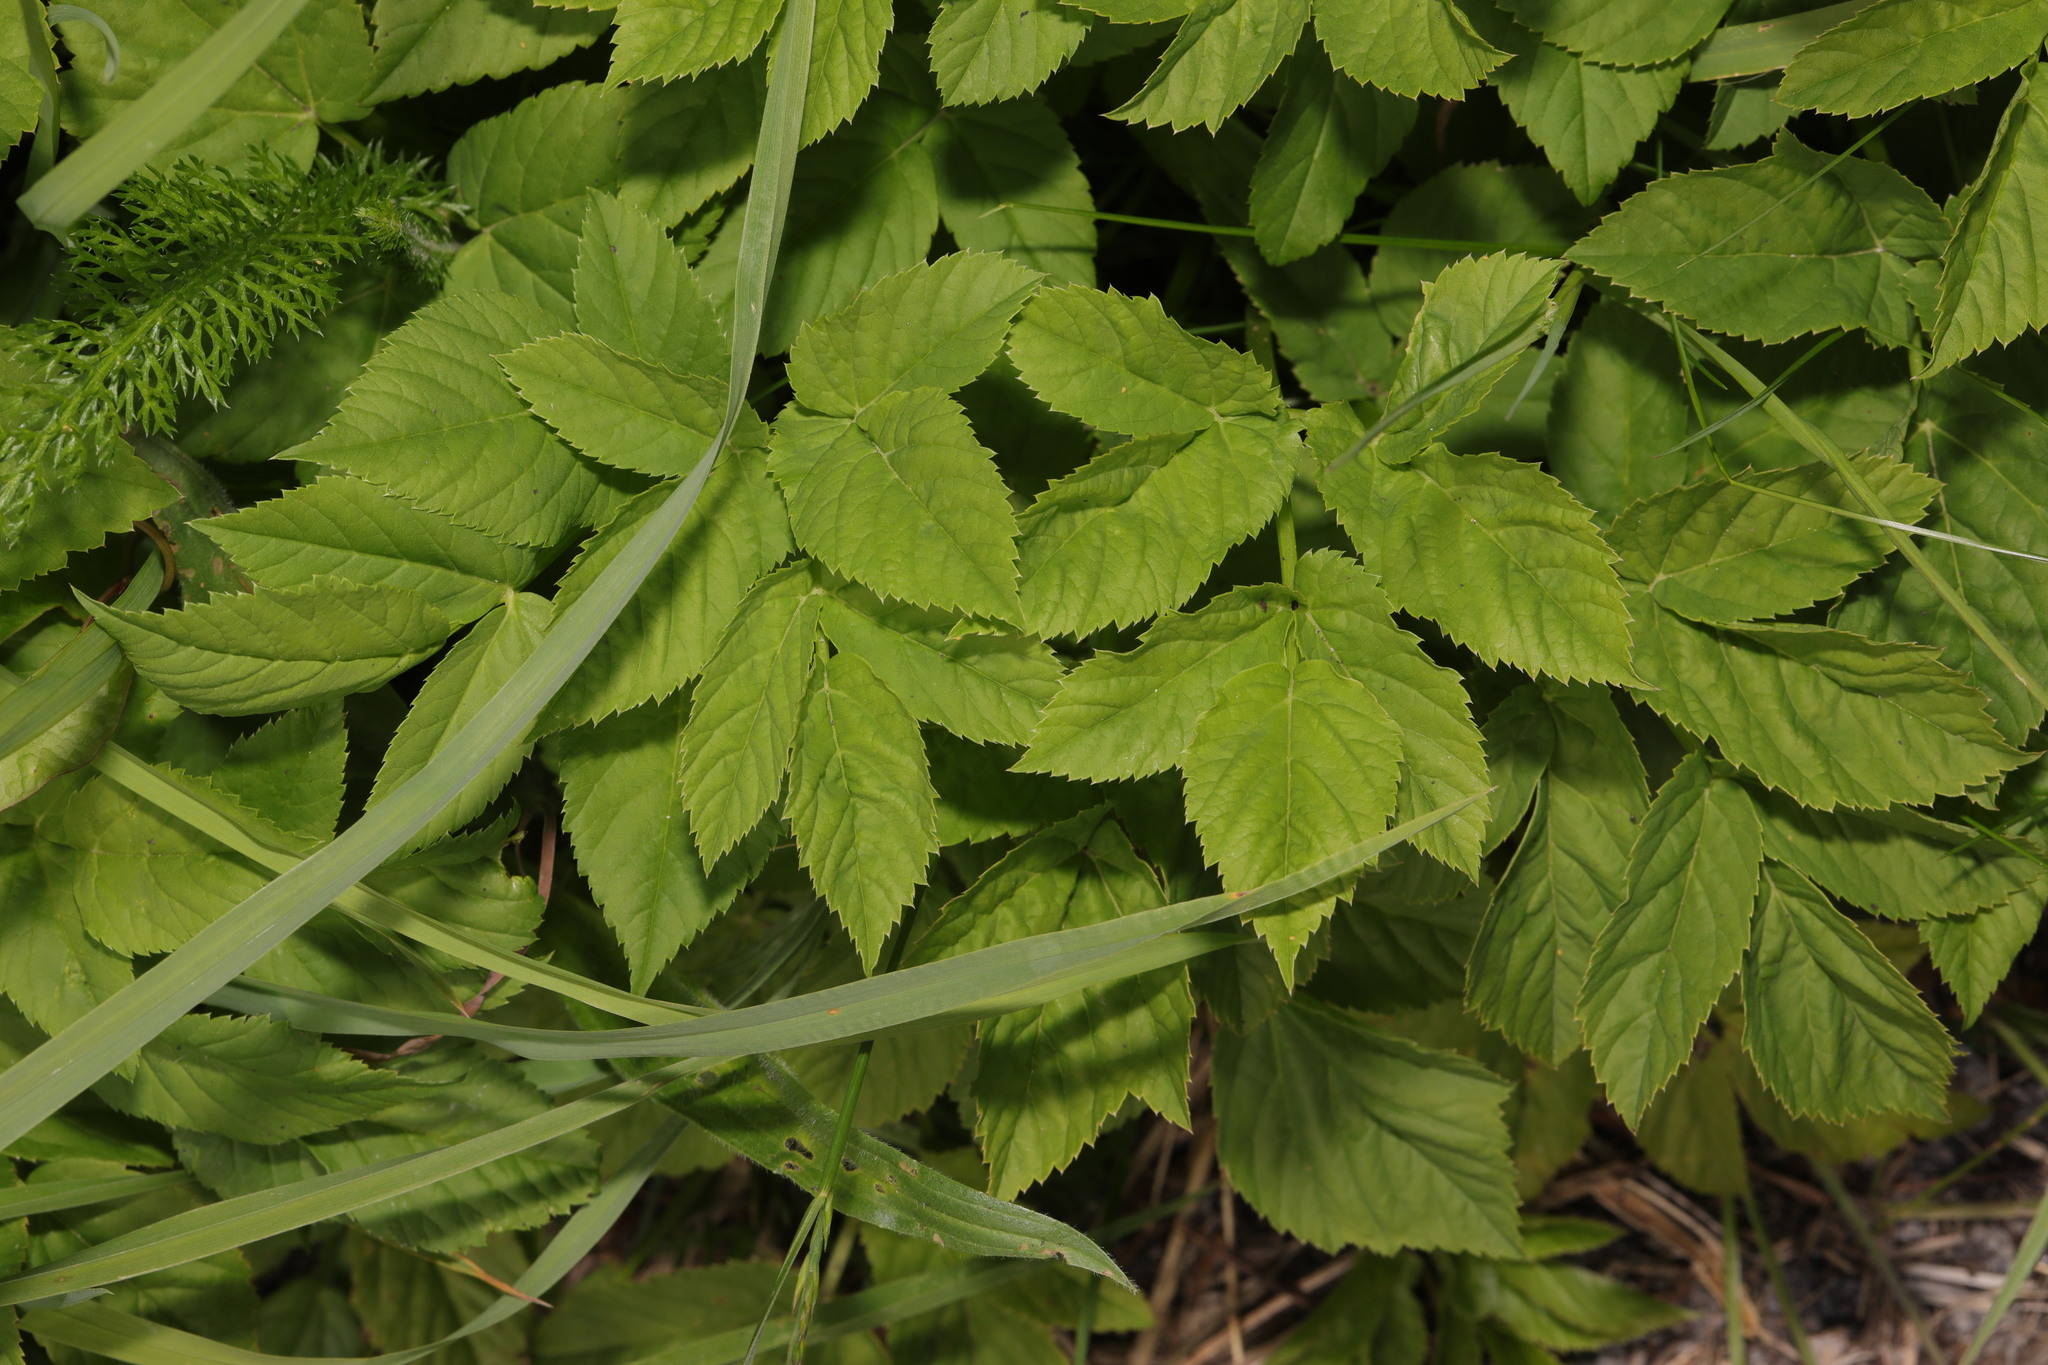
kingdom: Plantae
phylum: Tracheophyta
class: Magnoliopsida
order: Apiales
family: Apiaceae
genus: Aegopodium
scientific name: Aegopodium podagraria
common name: Ground-elder
